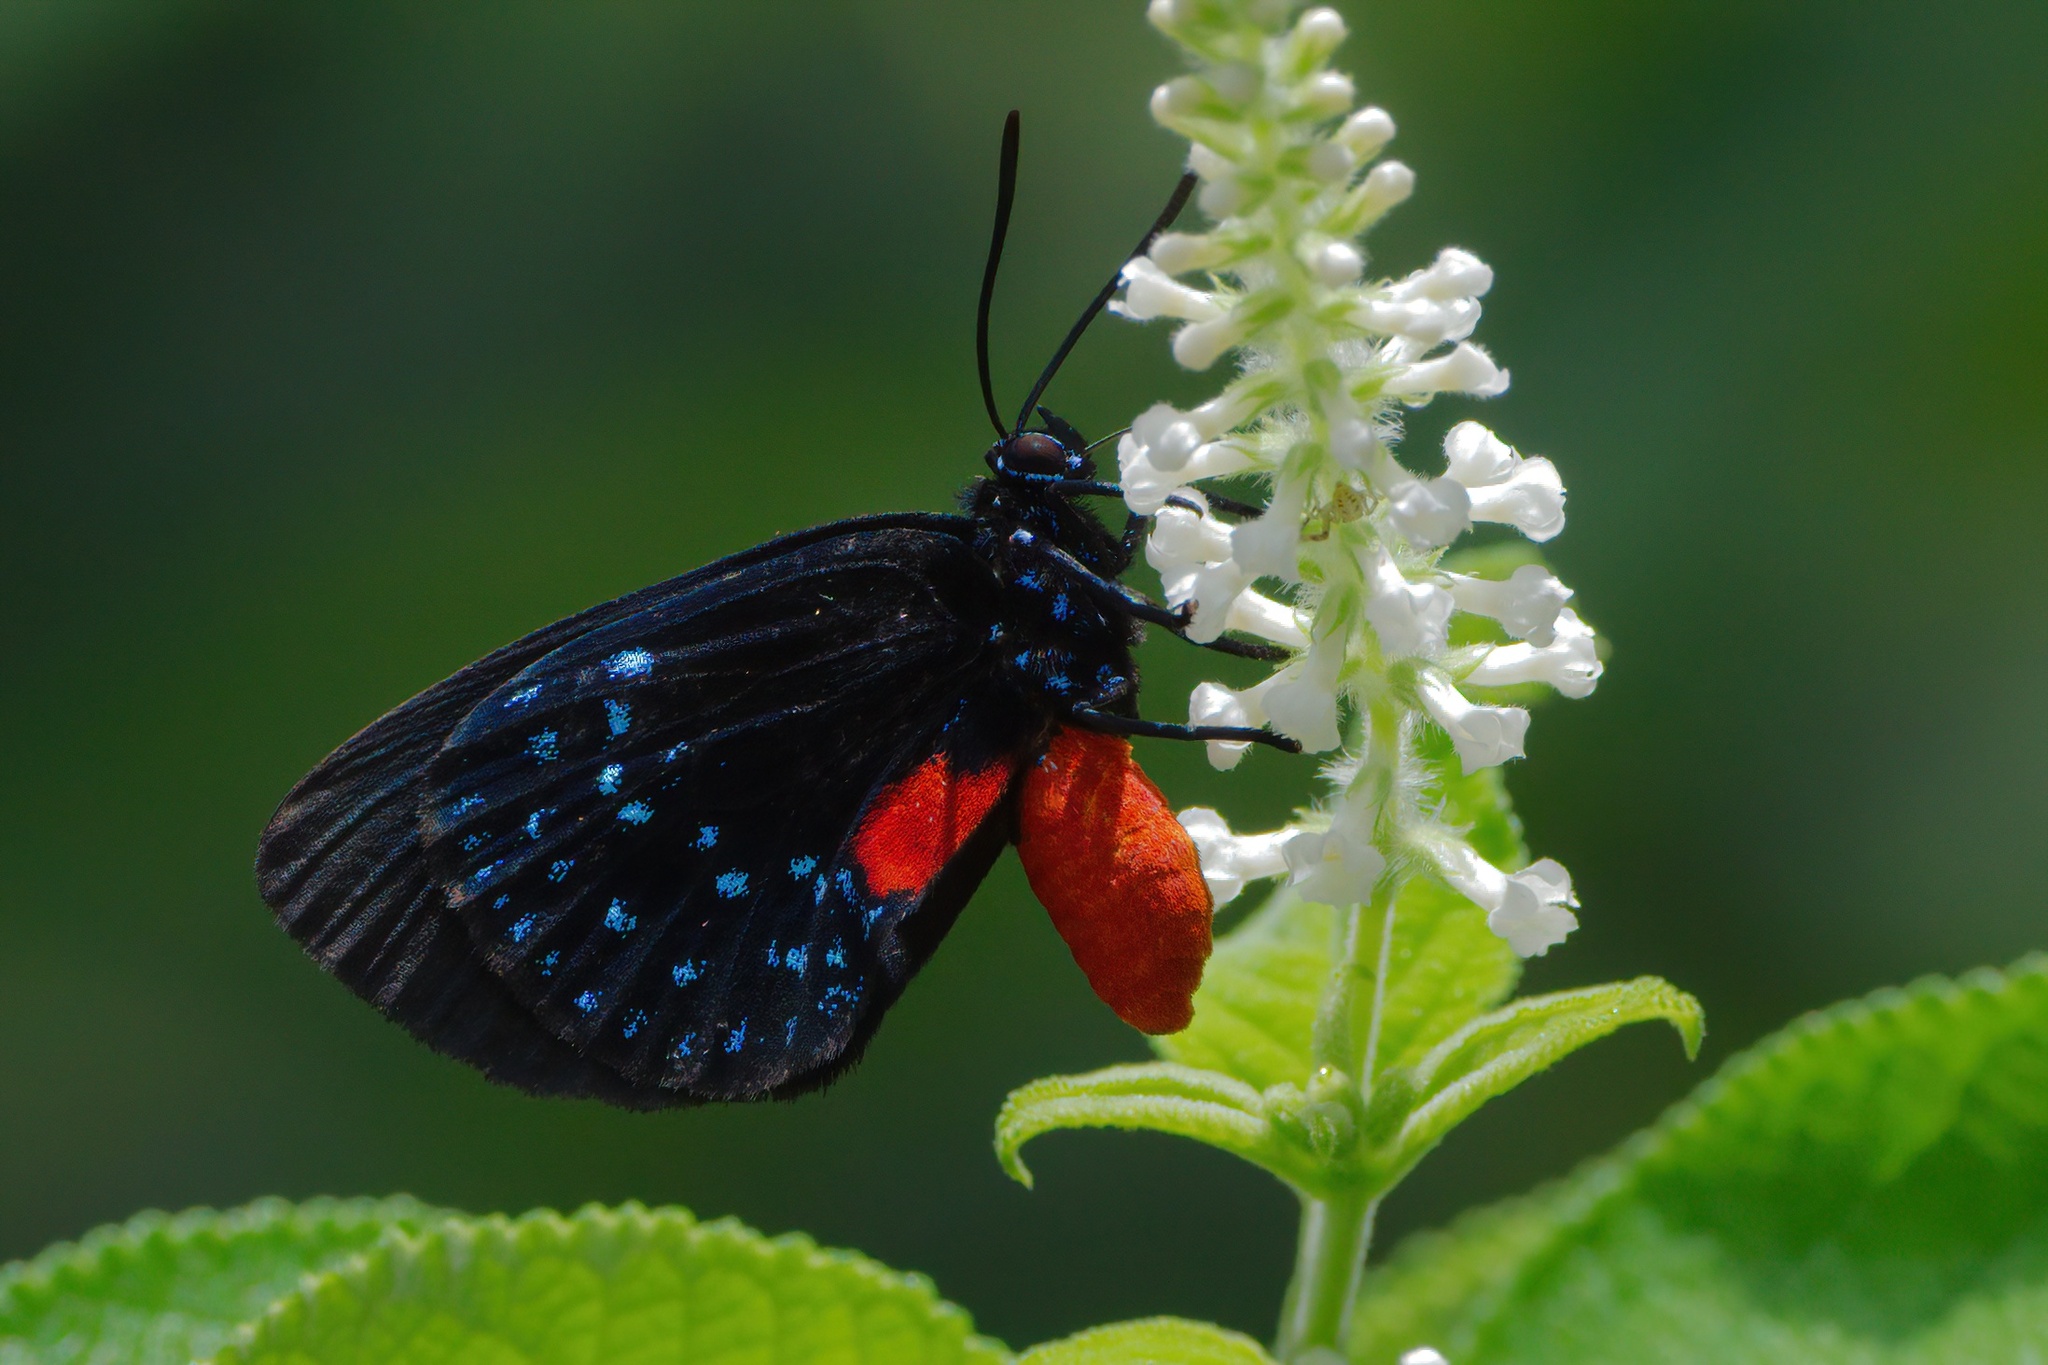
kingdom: Animalia
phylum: Arthropoda
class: Insecta
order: Lepidoptera
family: Lycaenidae
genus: Eumaeus
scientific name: Eumaeus atala
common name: Atala
